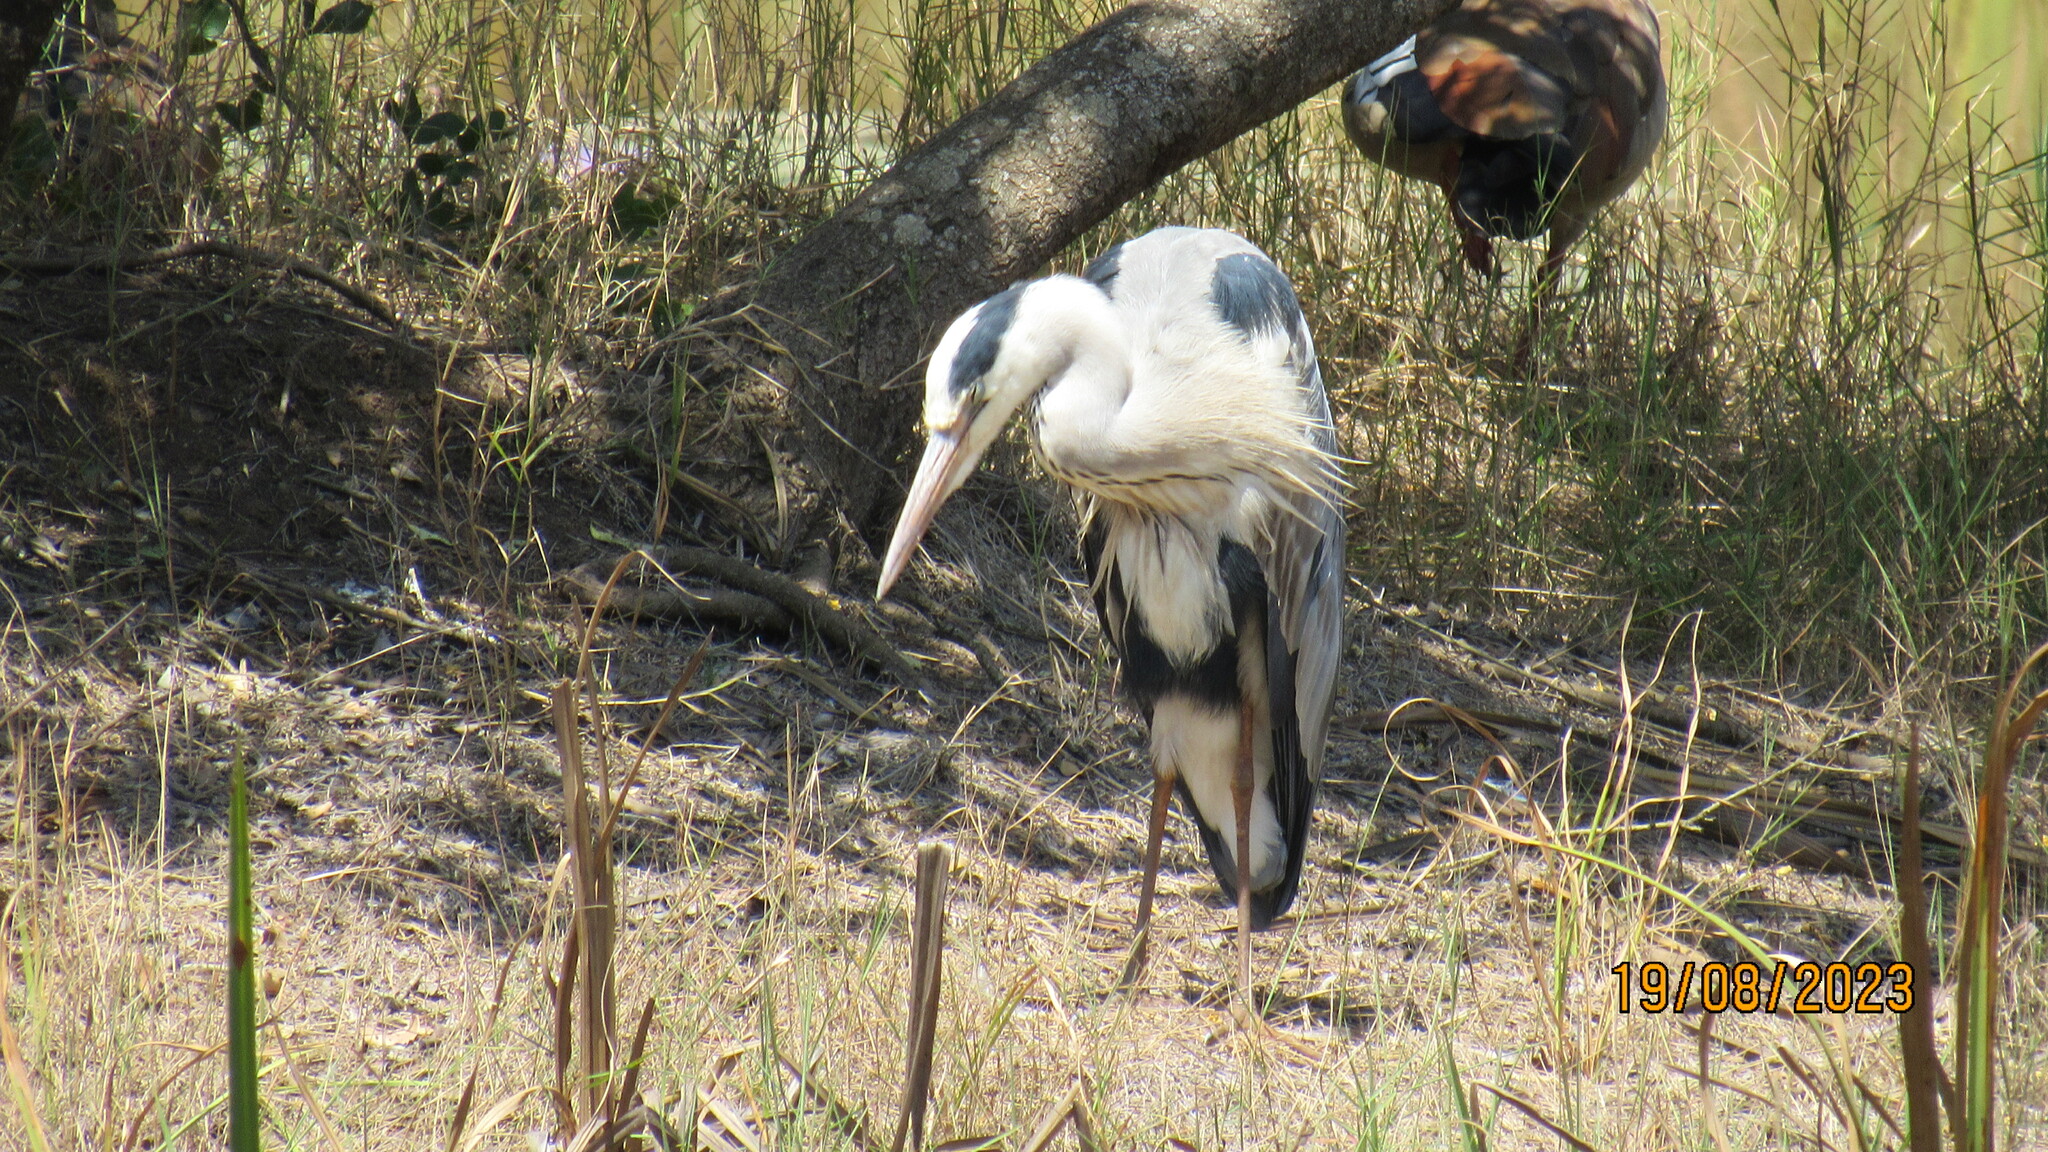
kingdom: Animalia
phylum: Chordata
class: Aves
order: Pelecaniformes
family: Ardeidae
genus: Ardea
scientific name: Ardea cinerea
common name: Grey heron
